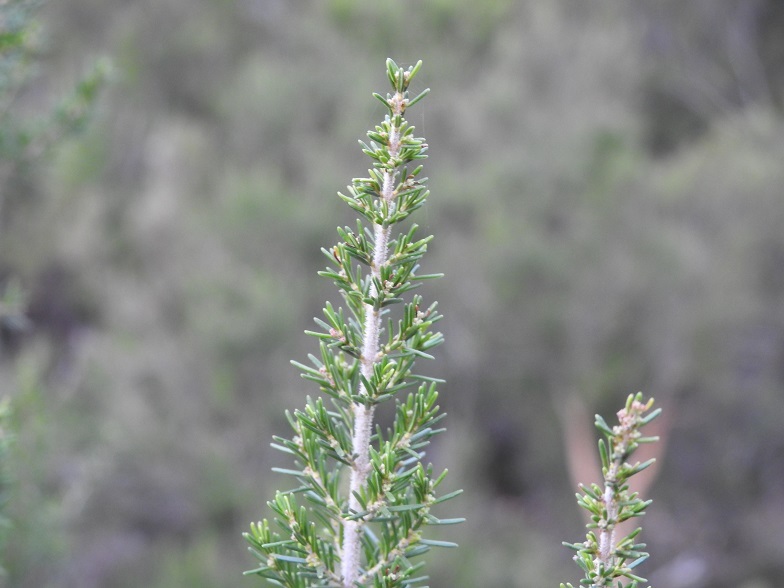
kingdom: Plantae
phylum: Tracheophyta
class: Magnoliopsida
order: Ericales
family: Ericaceae
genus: Erica
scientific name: Erica arborea
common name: Tree heath
